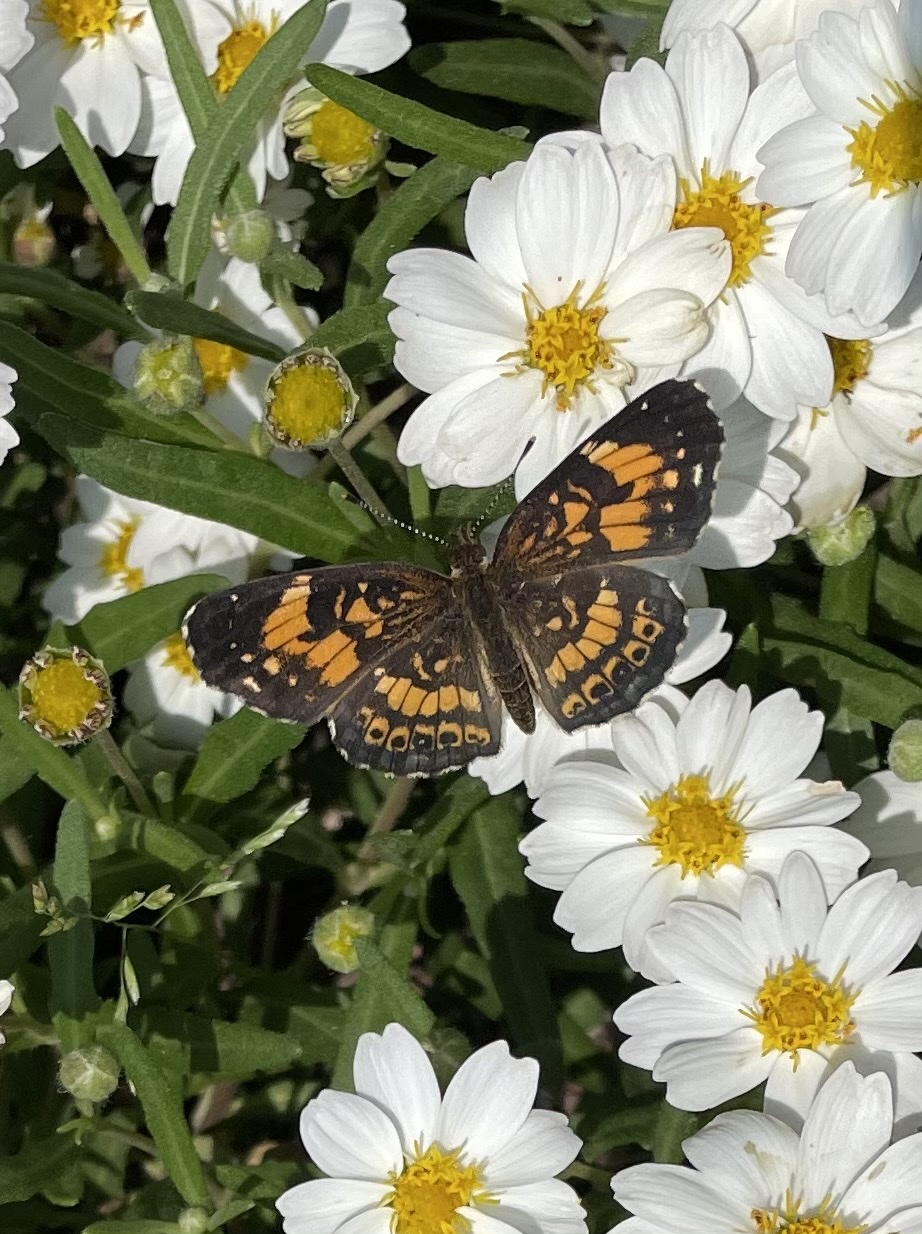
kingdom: Animalia
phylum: Arthropoda
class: Insecta
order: Lepidoptera
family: Nymphalidae
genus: Chlosyne
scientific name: Chlosyne nycteis
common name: Silvery checkerspot
